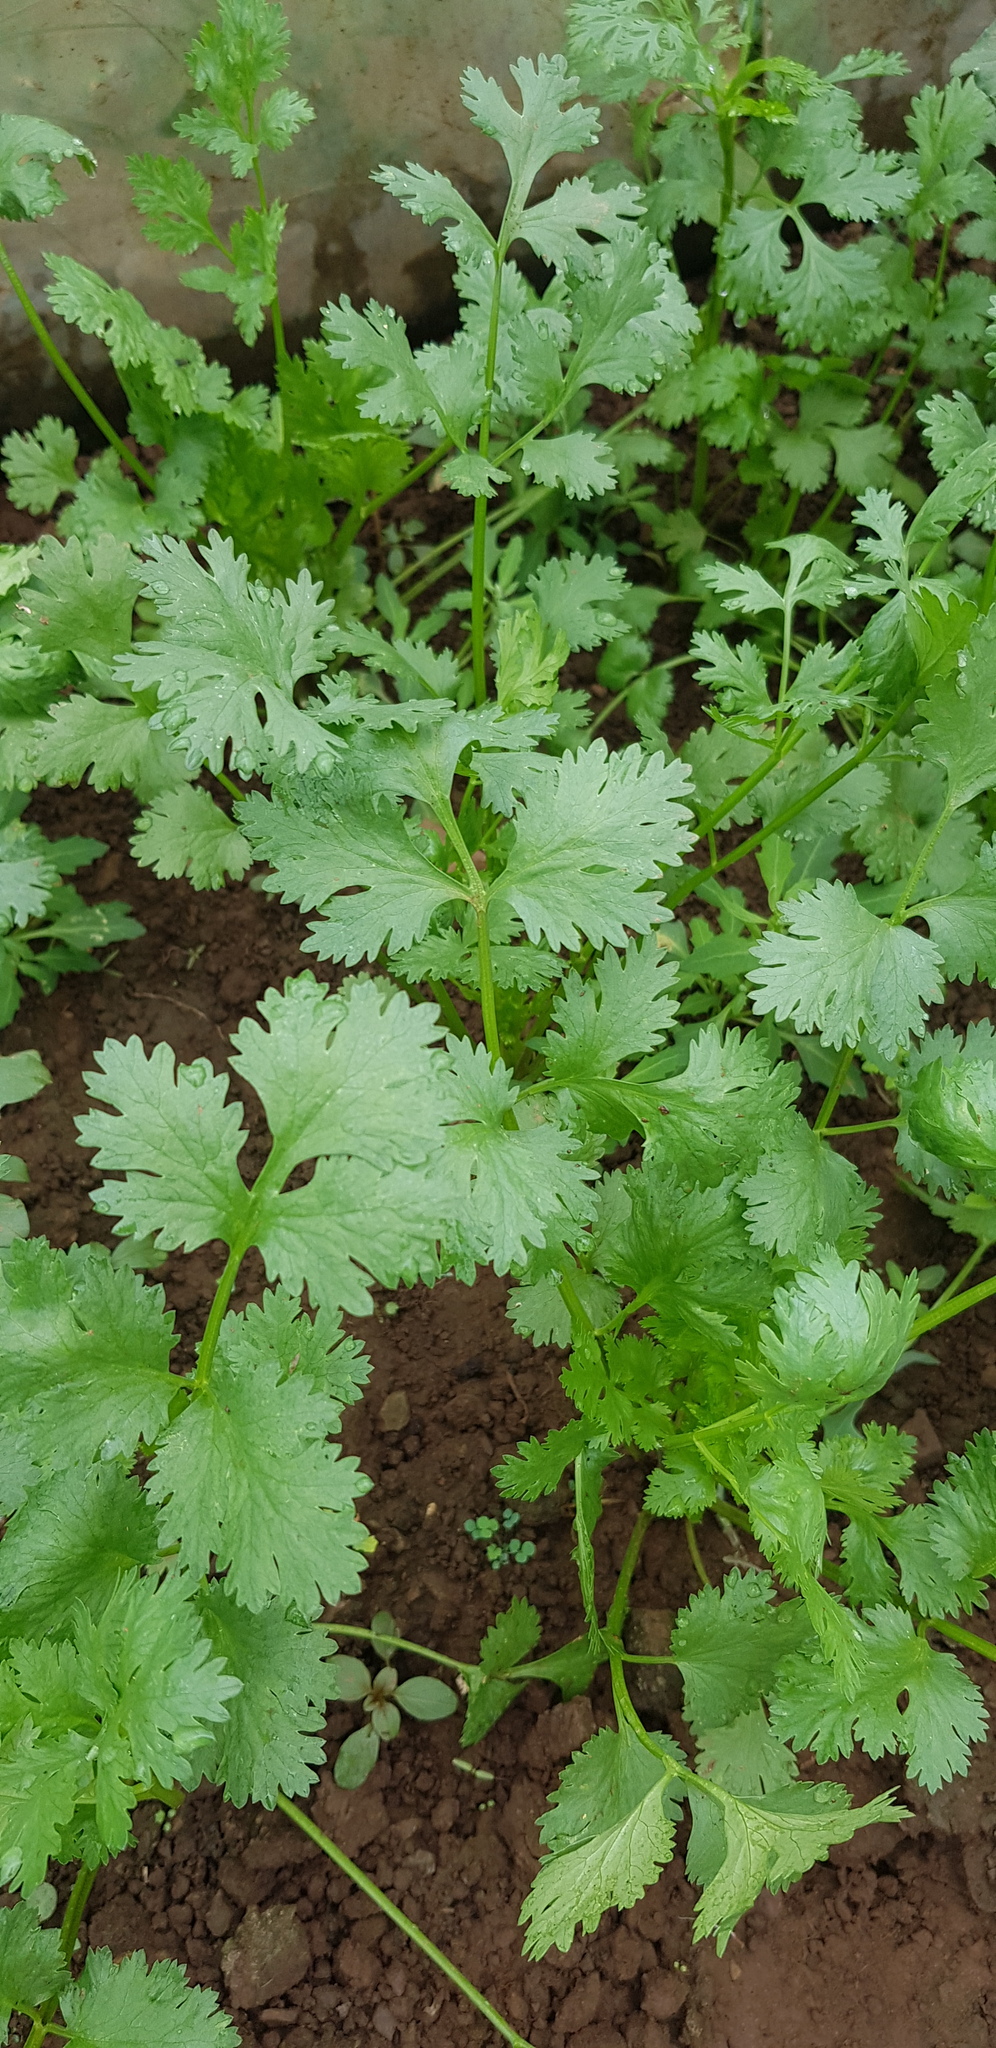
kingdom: Plantae
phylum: Tracheophyta
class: Magnoliopsida
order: Apiales
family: Apiaceae
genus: Coriandrum
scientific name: Coriandrum sativum
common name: Coriander
